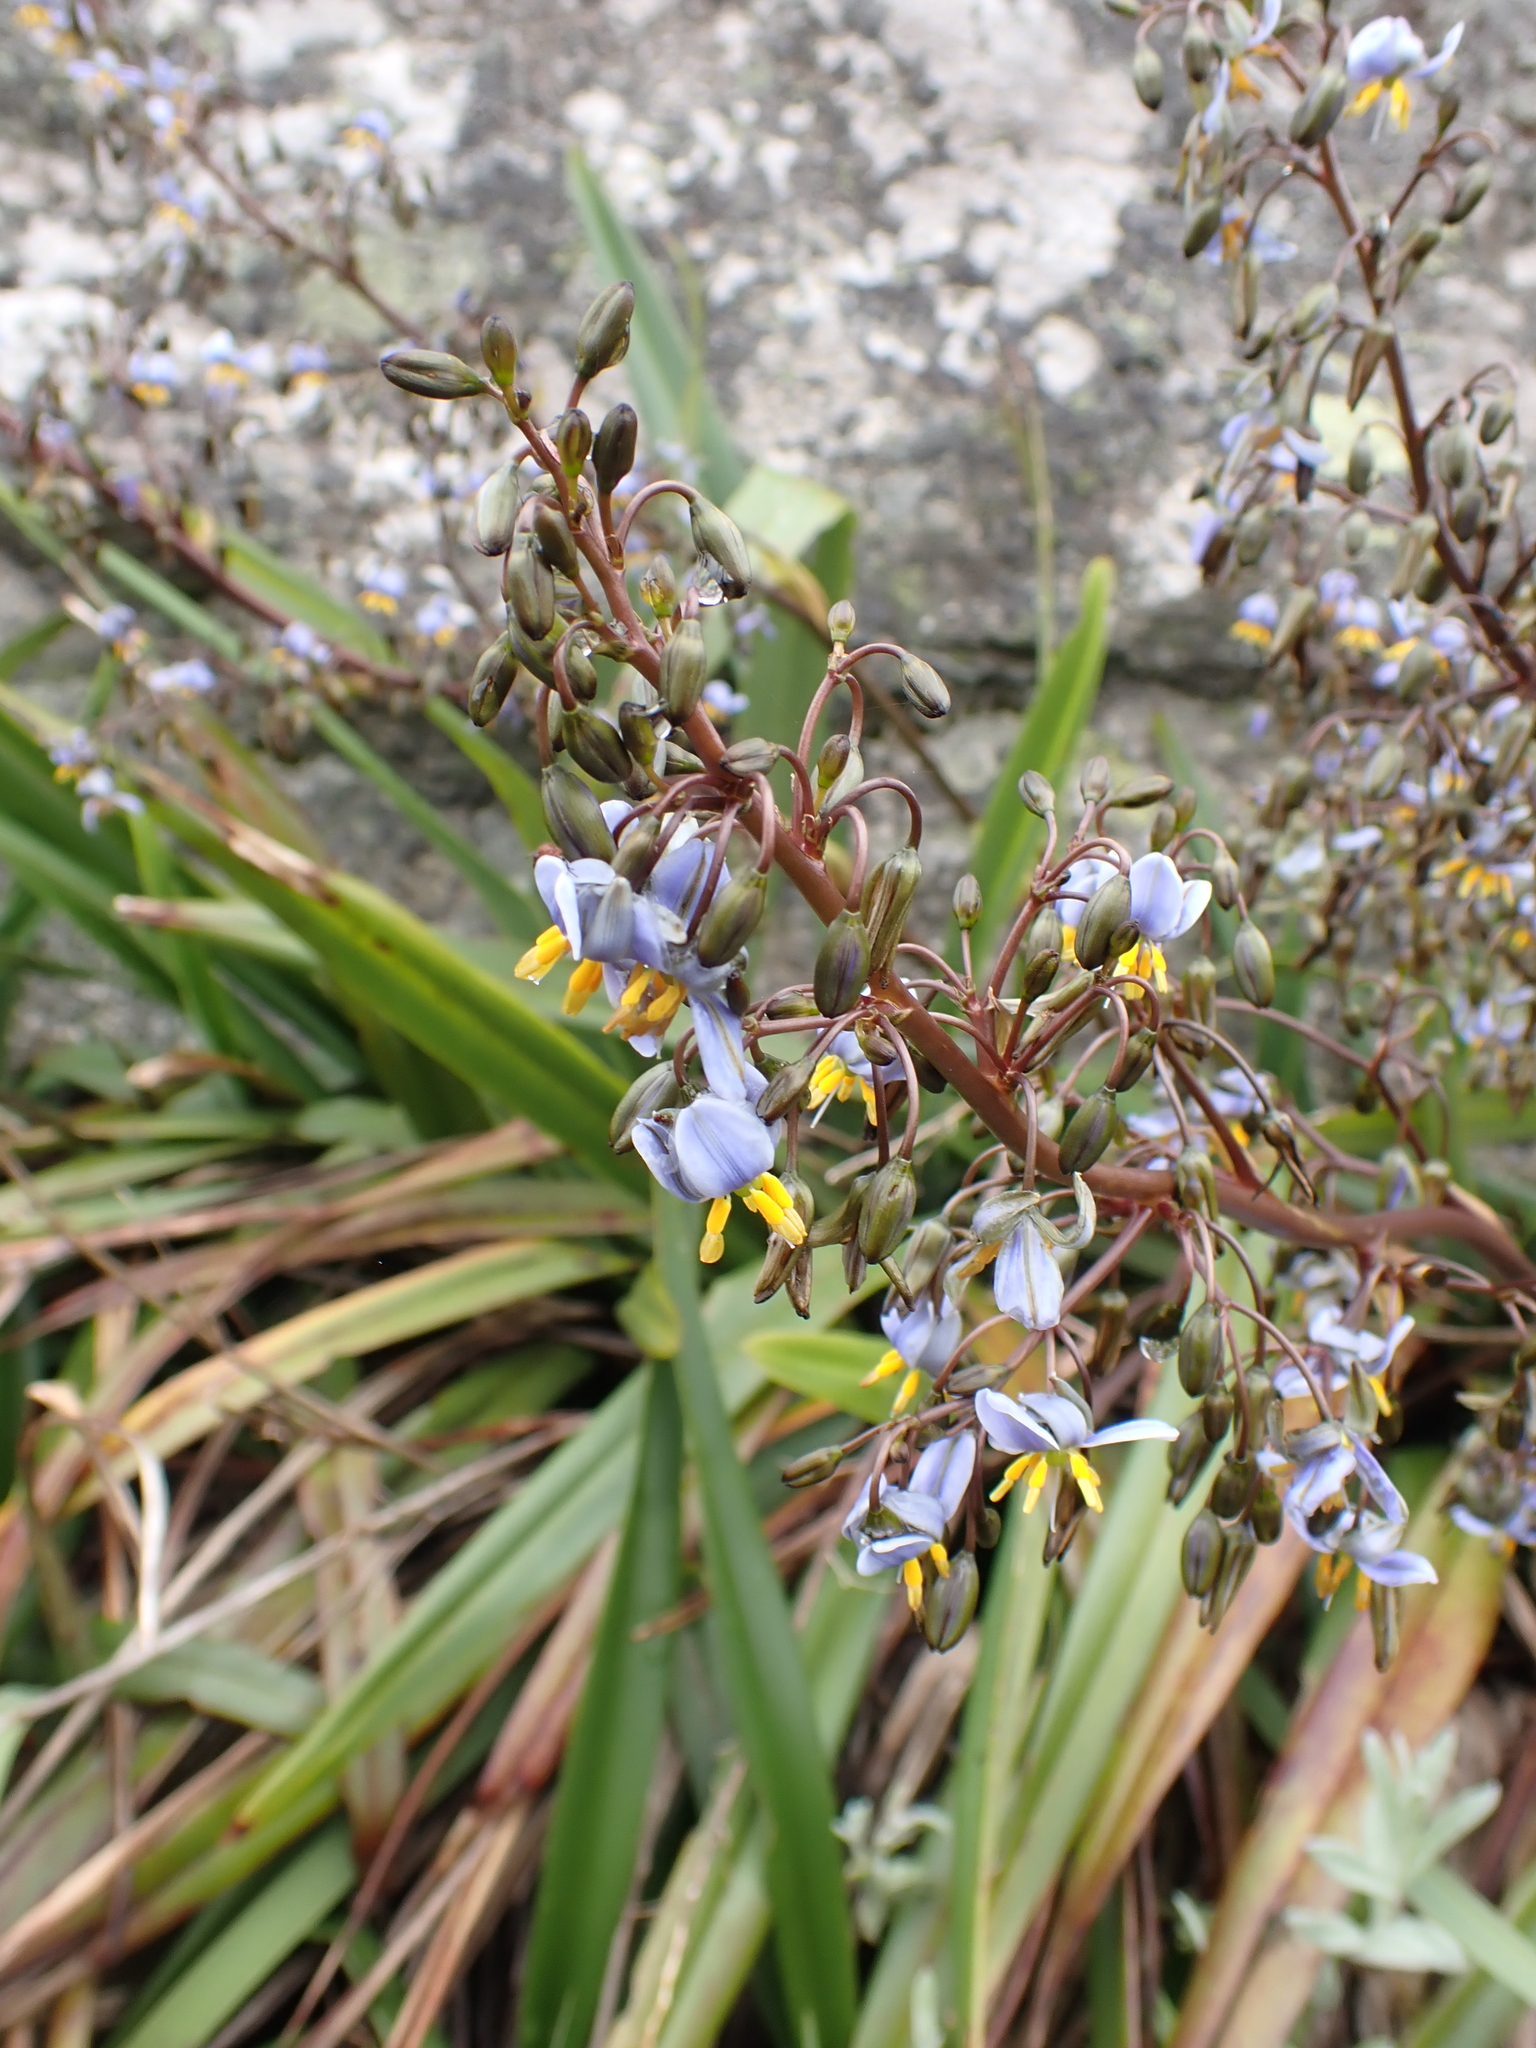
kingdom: Plantae
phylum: Tracheophyta
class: Liliopsida
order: Asparagales
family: Asphodelaceae
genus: Dianella
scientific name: Dianella tasmanica
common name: Tasman flax-lily
